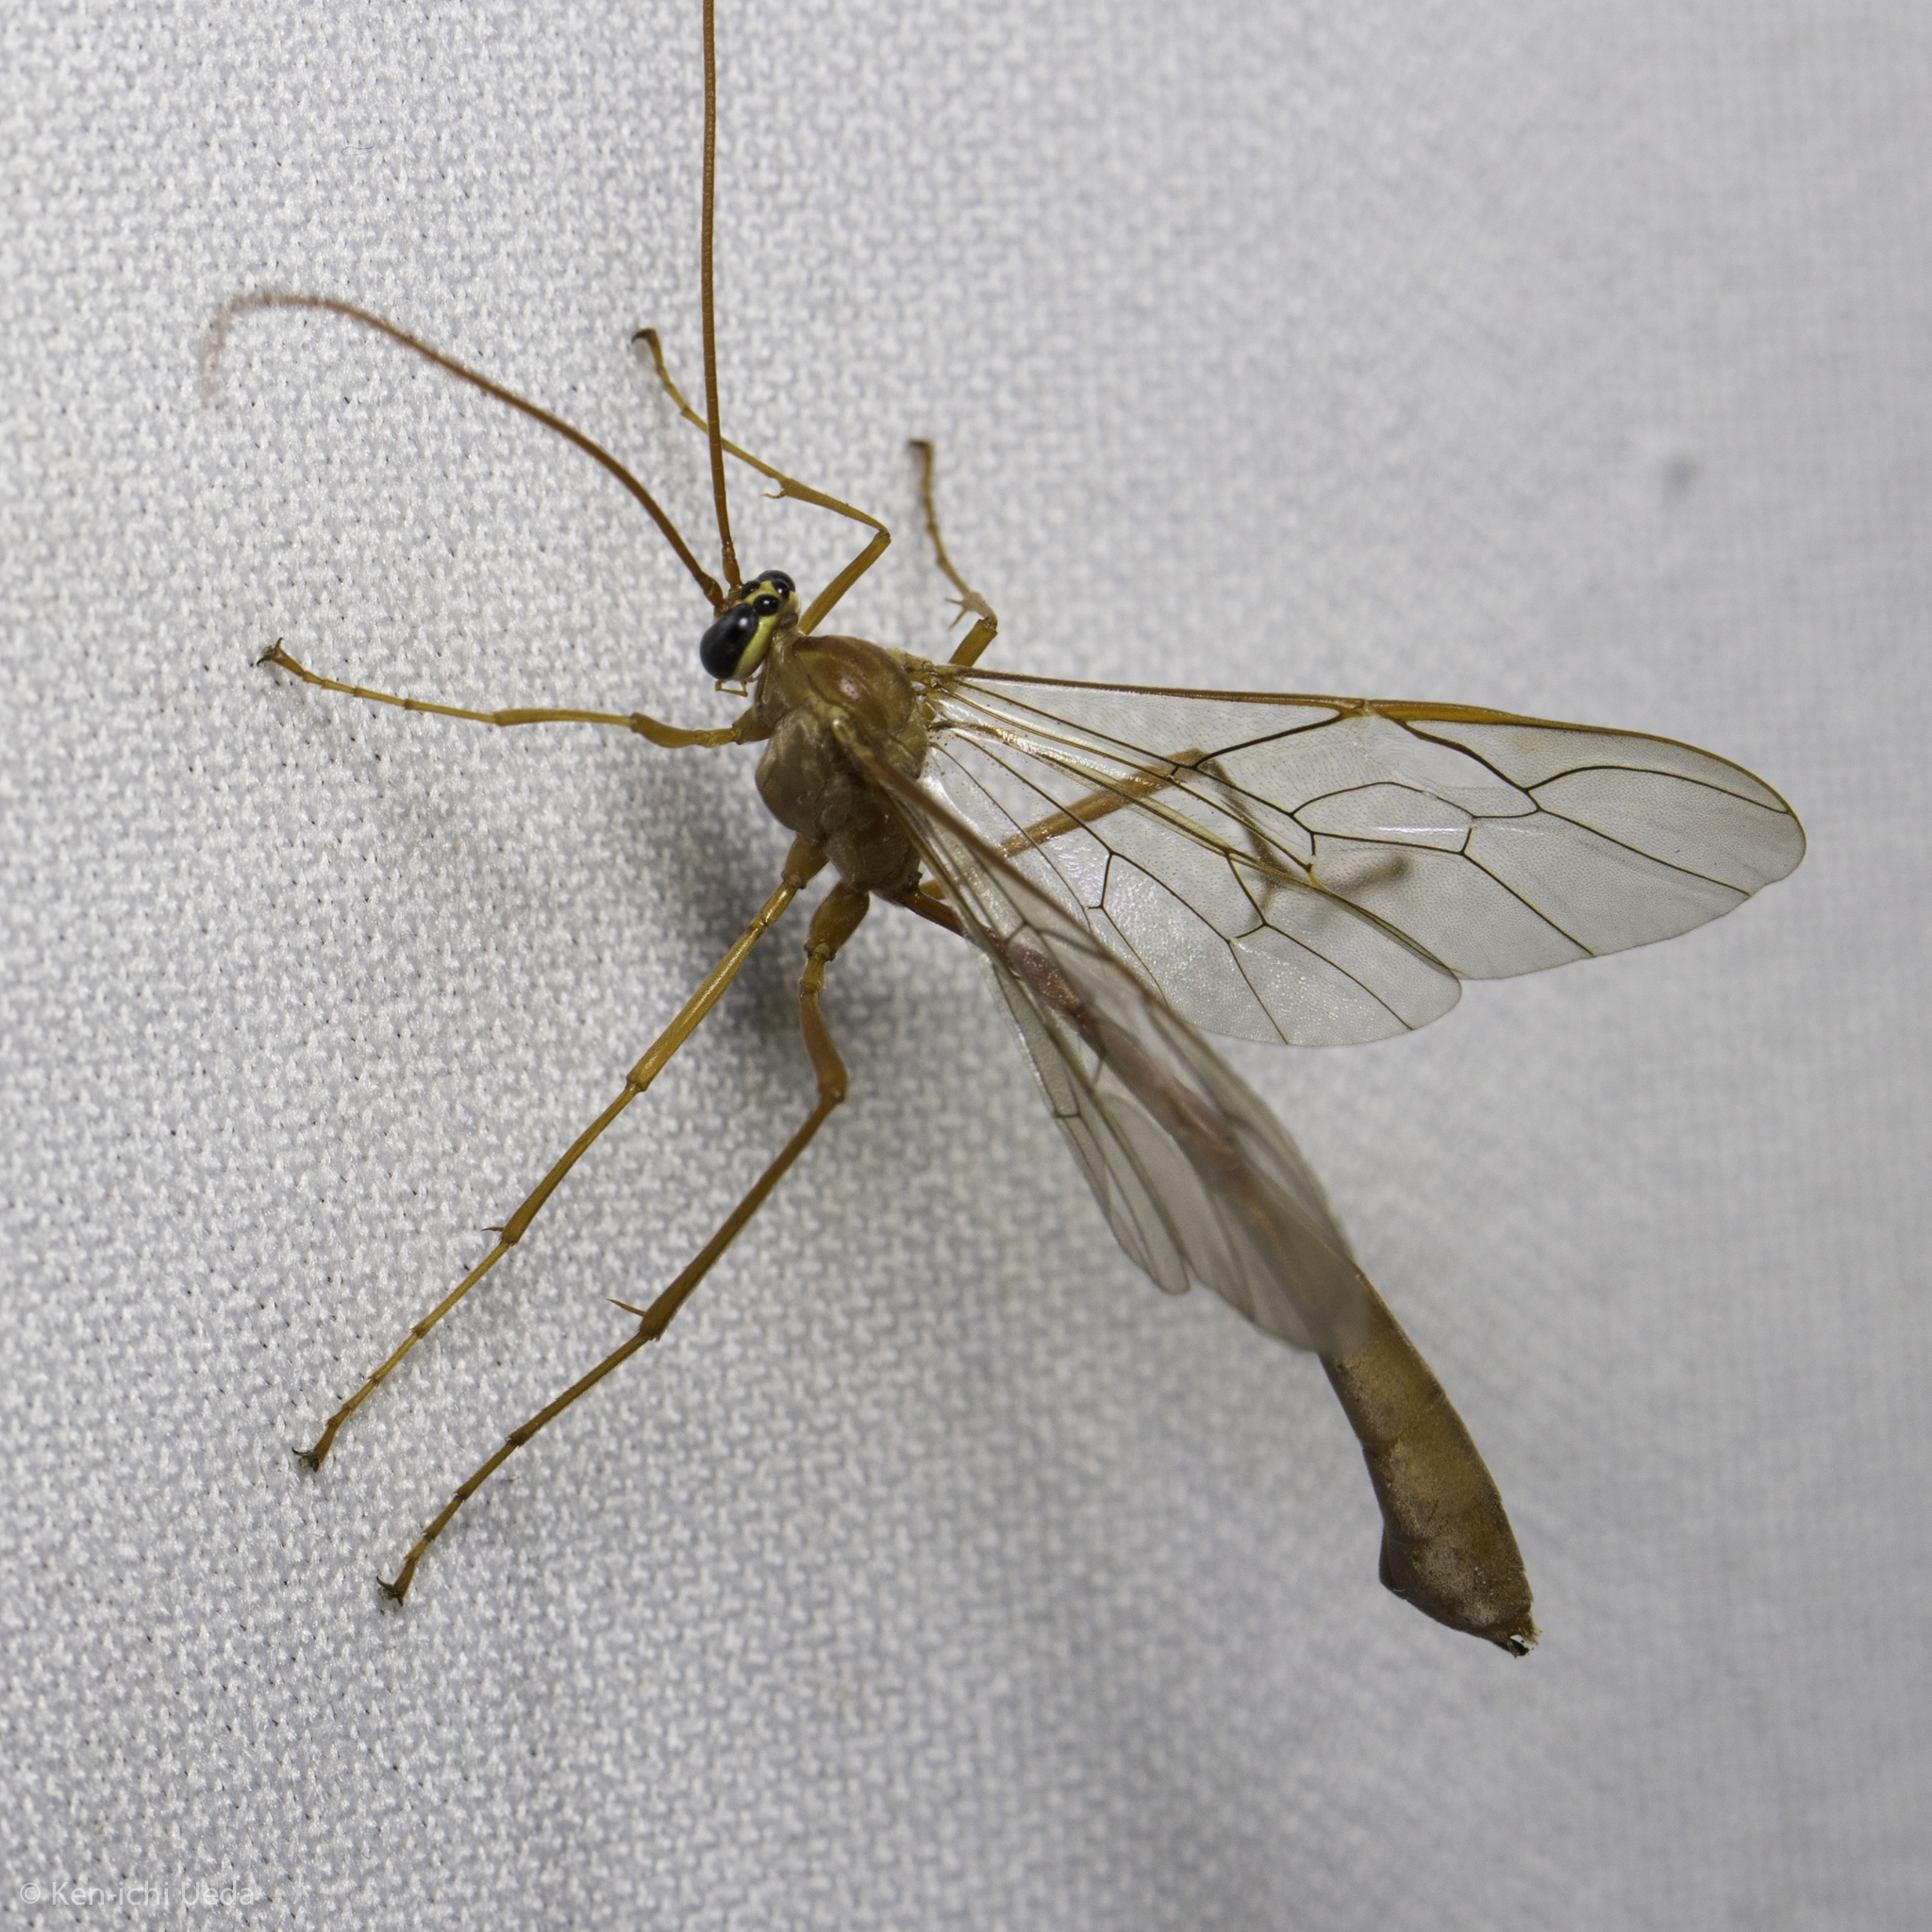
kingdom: Animalia
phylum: Arthropoda
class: Insecta
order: Hymenoptera
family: Ichneumonidae
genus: Enicospilus
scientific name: Enicospilus
